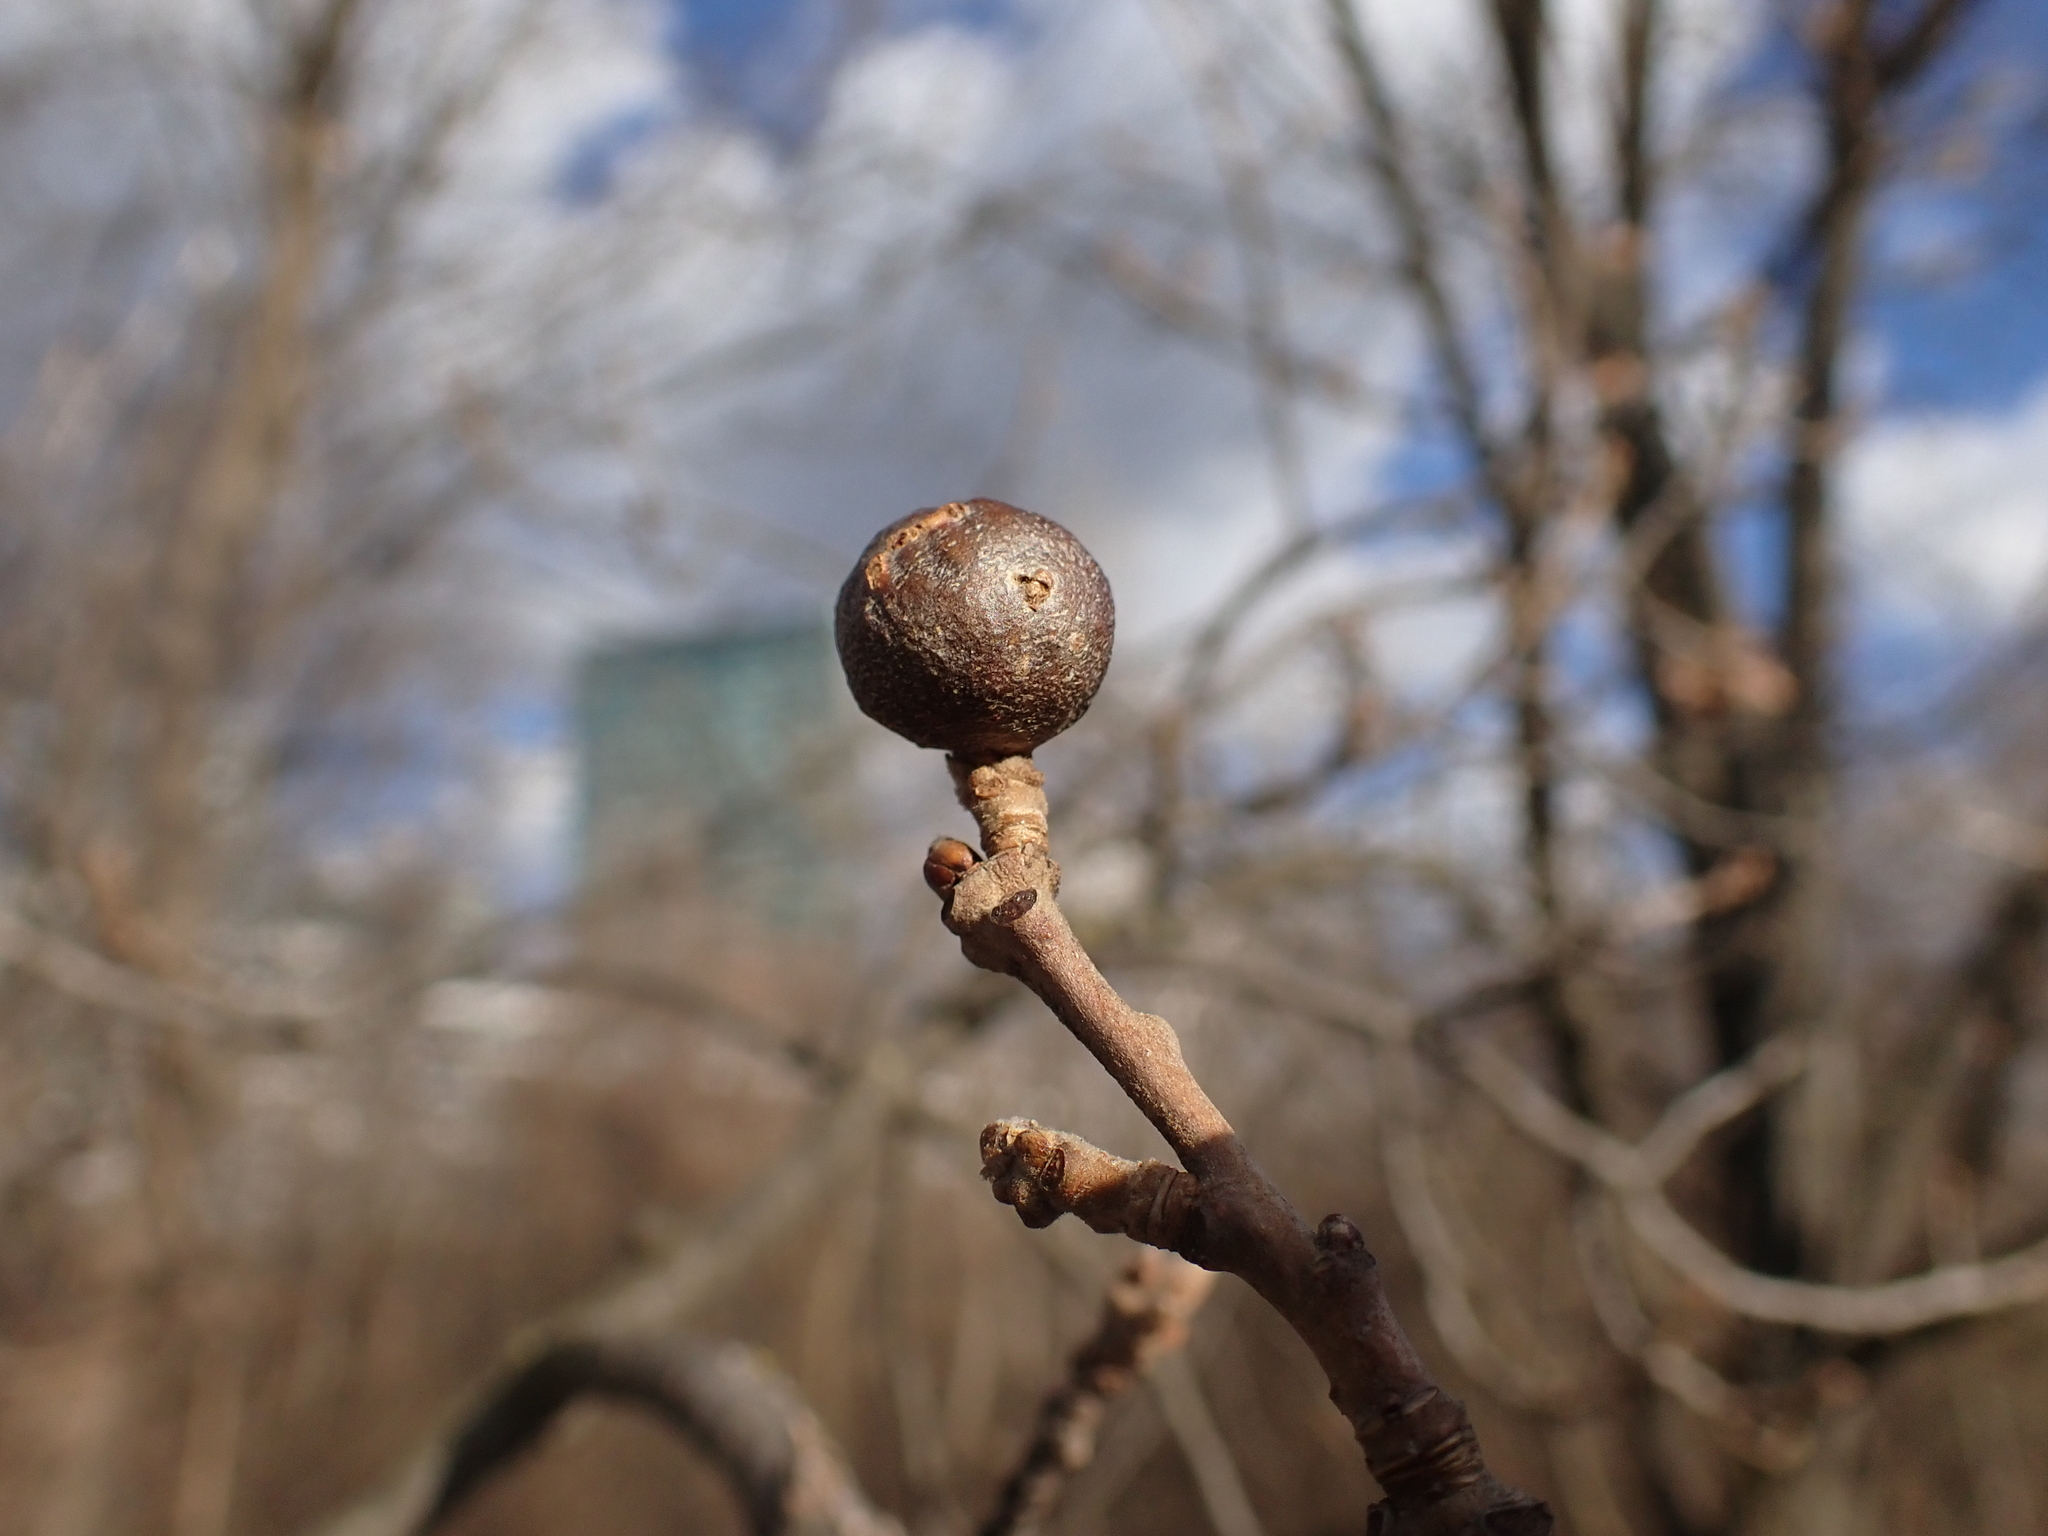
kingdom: Animalia
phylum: Arthropoda
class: Insecta
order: Hymenoptera
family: Cynipidae
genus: Andricus
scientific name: Andricus lignicolus
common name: Cola-nut gall
